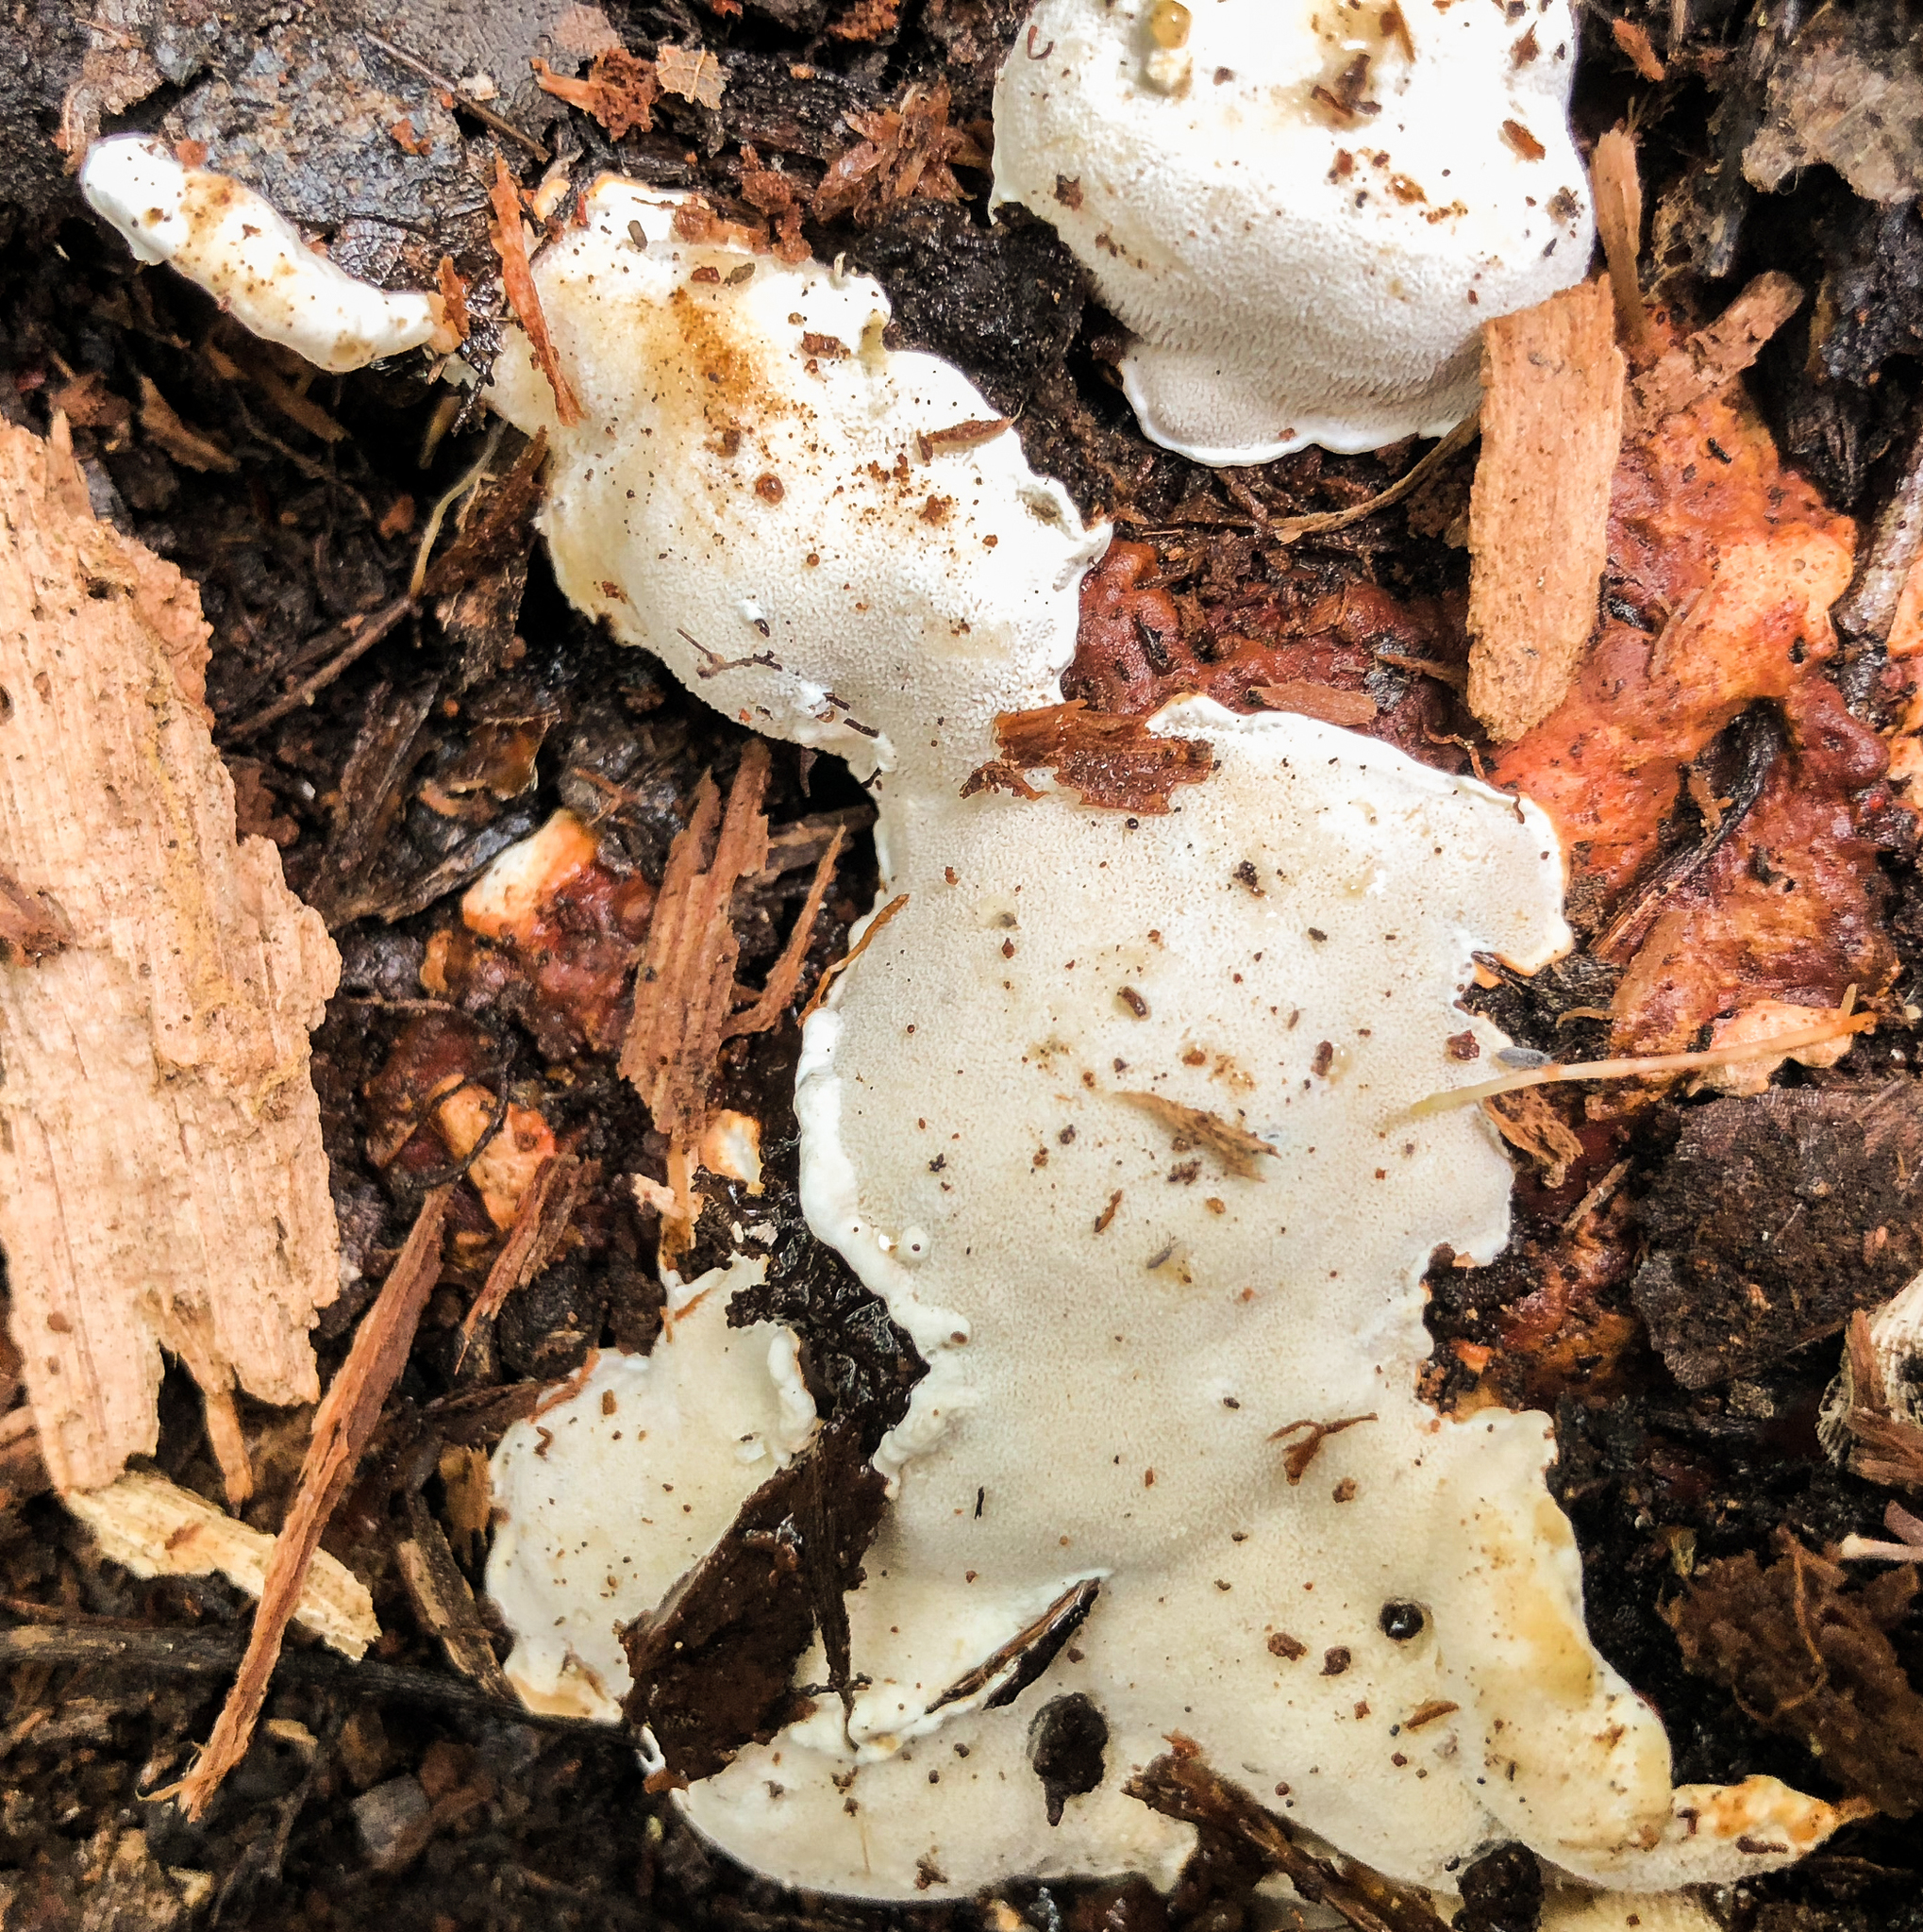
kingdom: Fungi
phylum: Basidiomycota
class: Agaricomycetes
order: Russulales
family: Bondarzewiaceae
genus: Heterobasidion
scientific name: Heterobasidion irregulare
